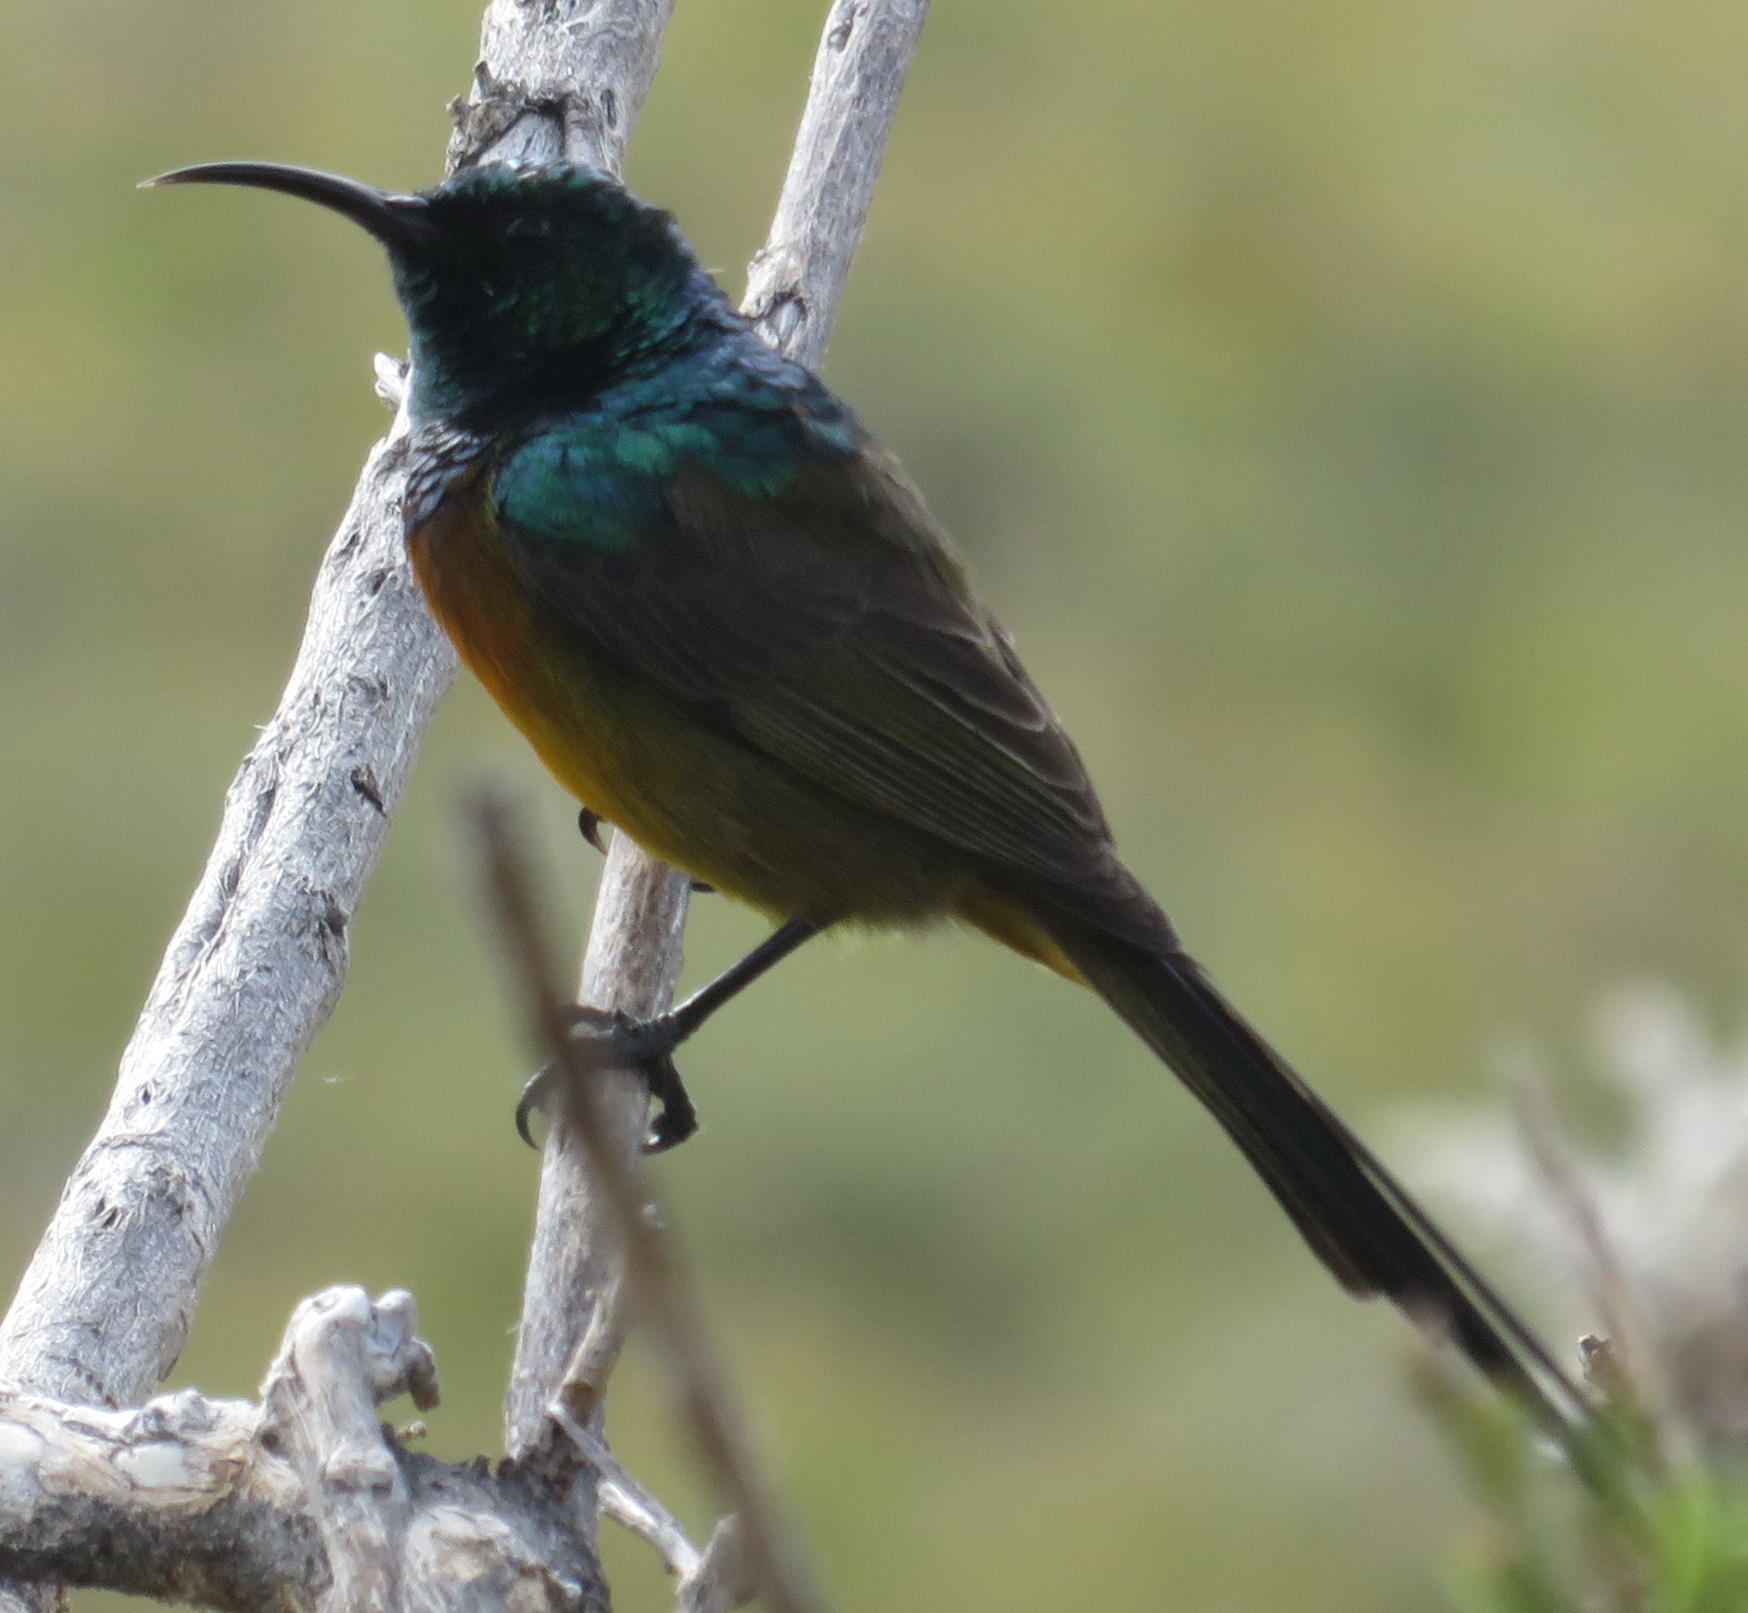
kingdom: Animalia
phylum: Chordata
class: Aves
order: Passeriformes
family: Nectariniidae
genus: Anthobaphes
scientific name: Anthobaphes violacea
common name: Orange-breasted sunbird
